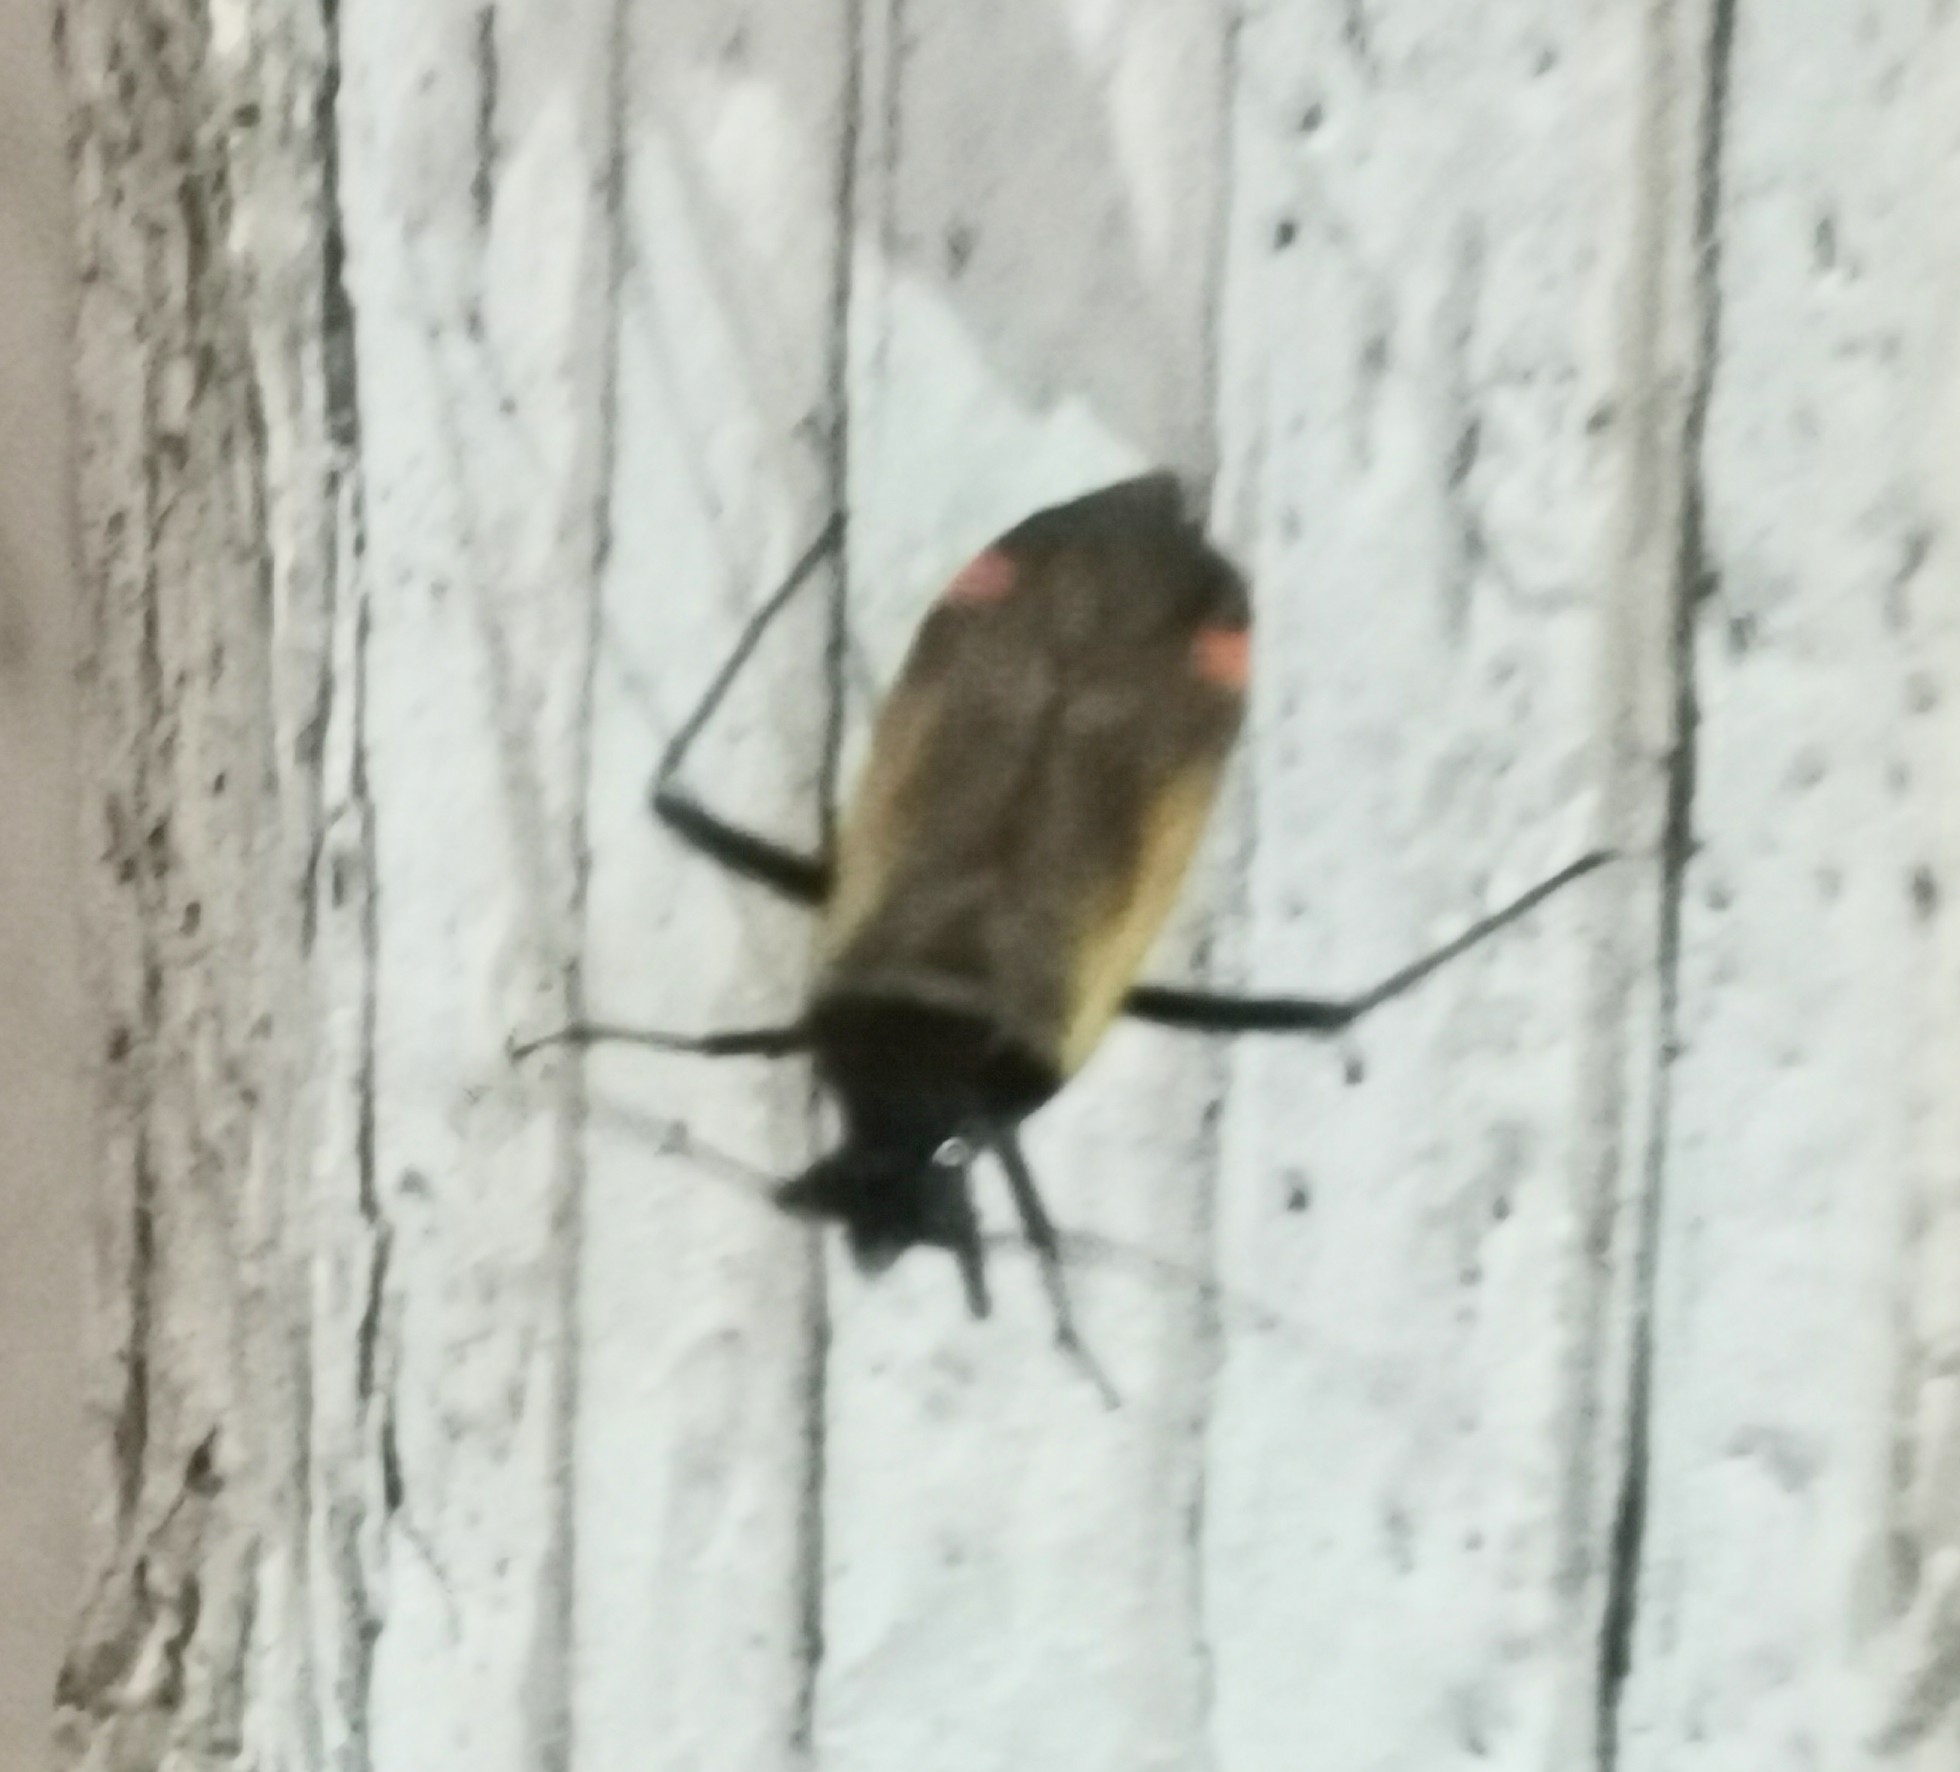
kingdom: Animalia
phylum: Arthropoda
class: Insecta
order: Hemiptera
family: Miridae
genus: Adelphocoris
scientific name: Adelphocoris seticornis
